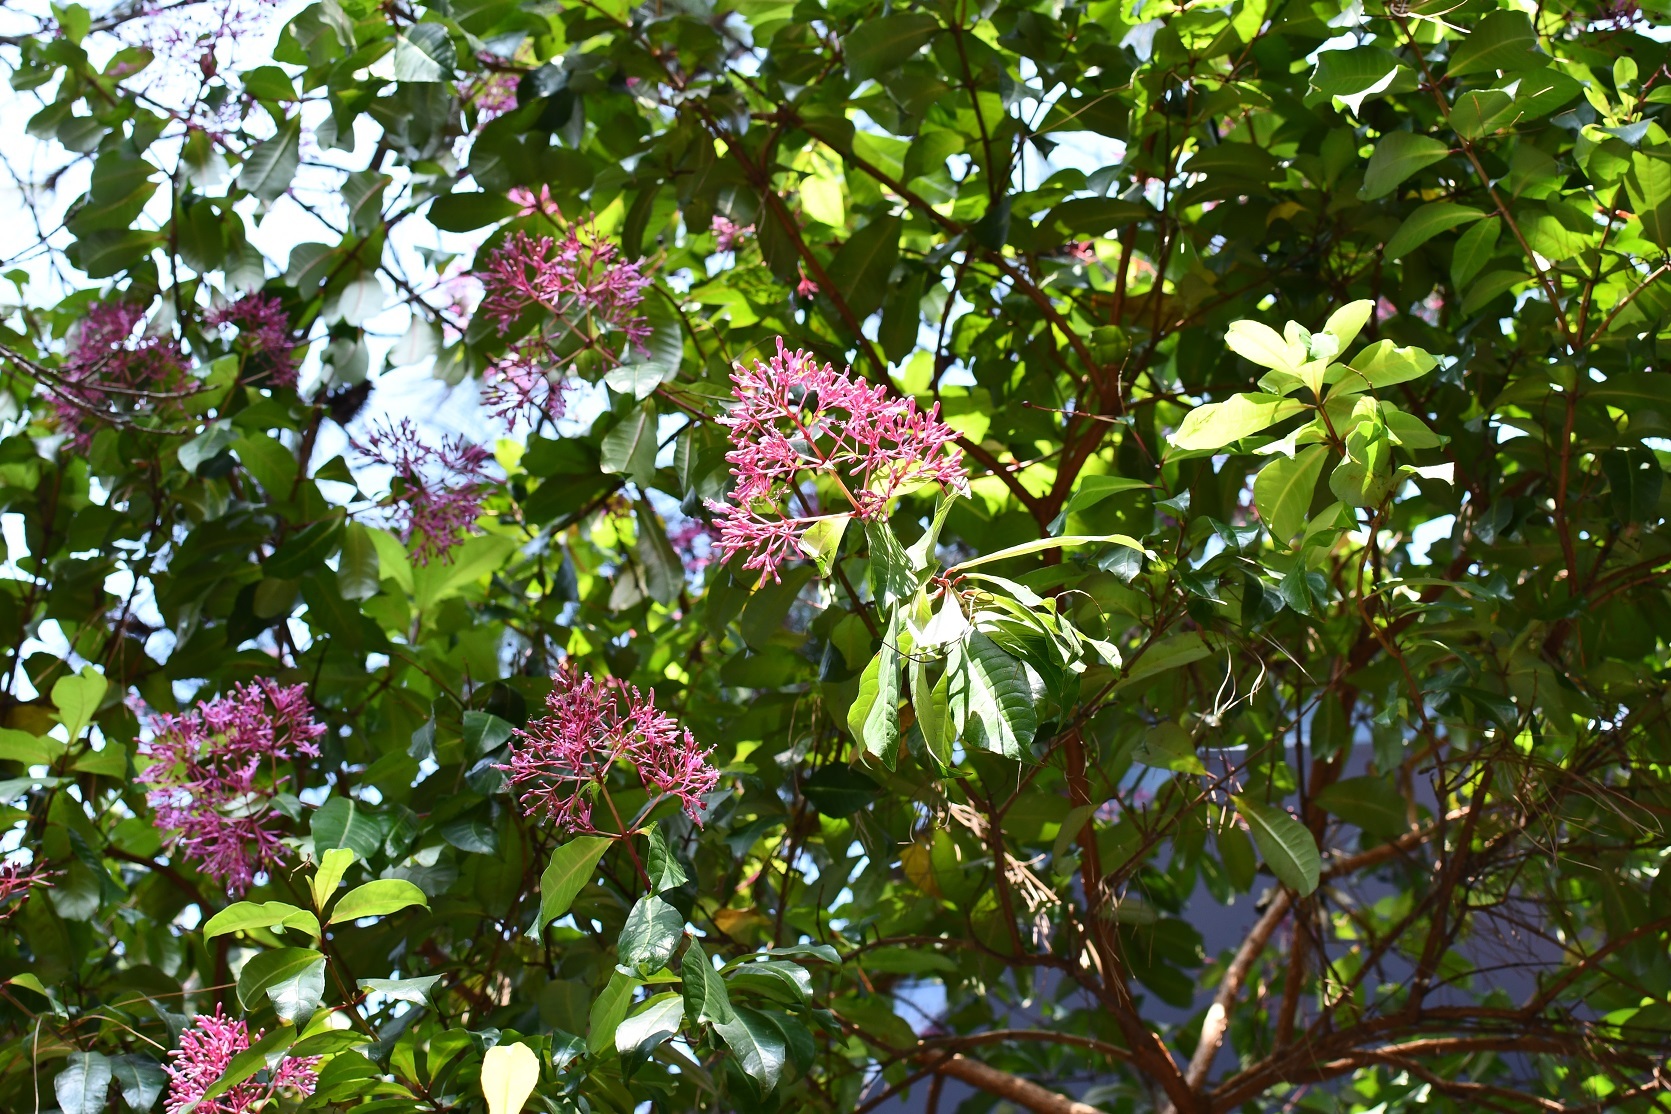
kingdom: Plantae
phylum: Tracheophyta
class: Magnoliopsida
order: Myrtales
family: Onagraceae
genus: Fuchsia
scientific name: Fuchsia paniculata
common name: Shrubby fuchsia
